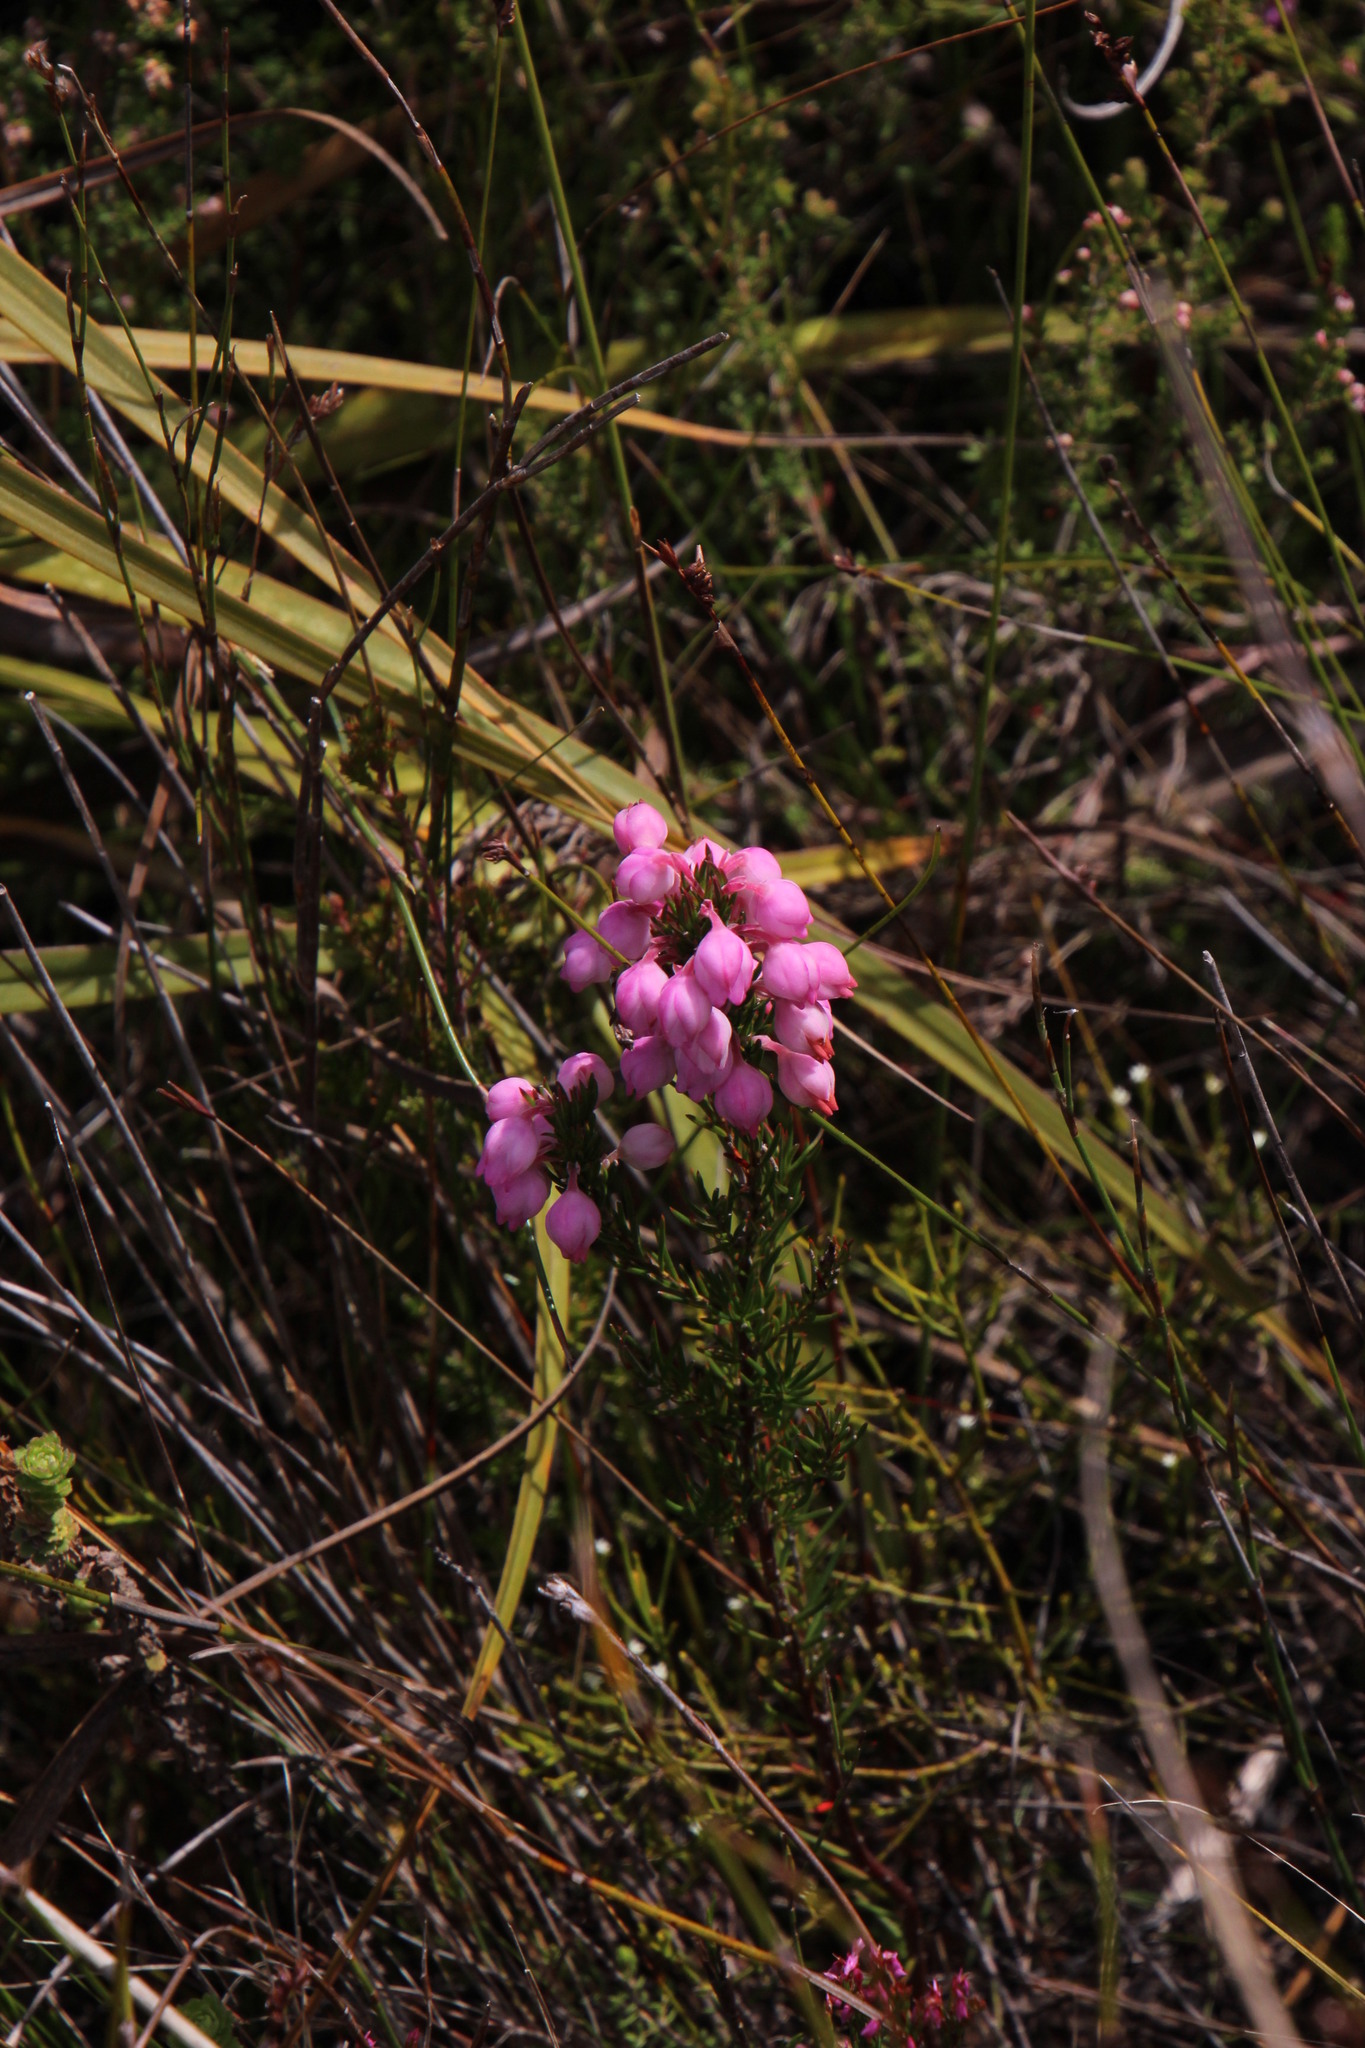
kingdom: Plantae
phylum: Tracheophyta
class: Magnoliopsida
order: Ericales
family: Ericaceae
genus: Erica
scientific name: Erica holosericea
